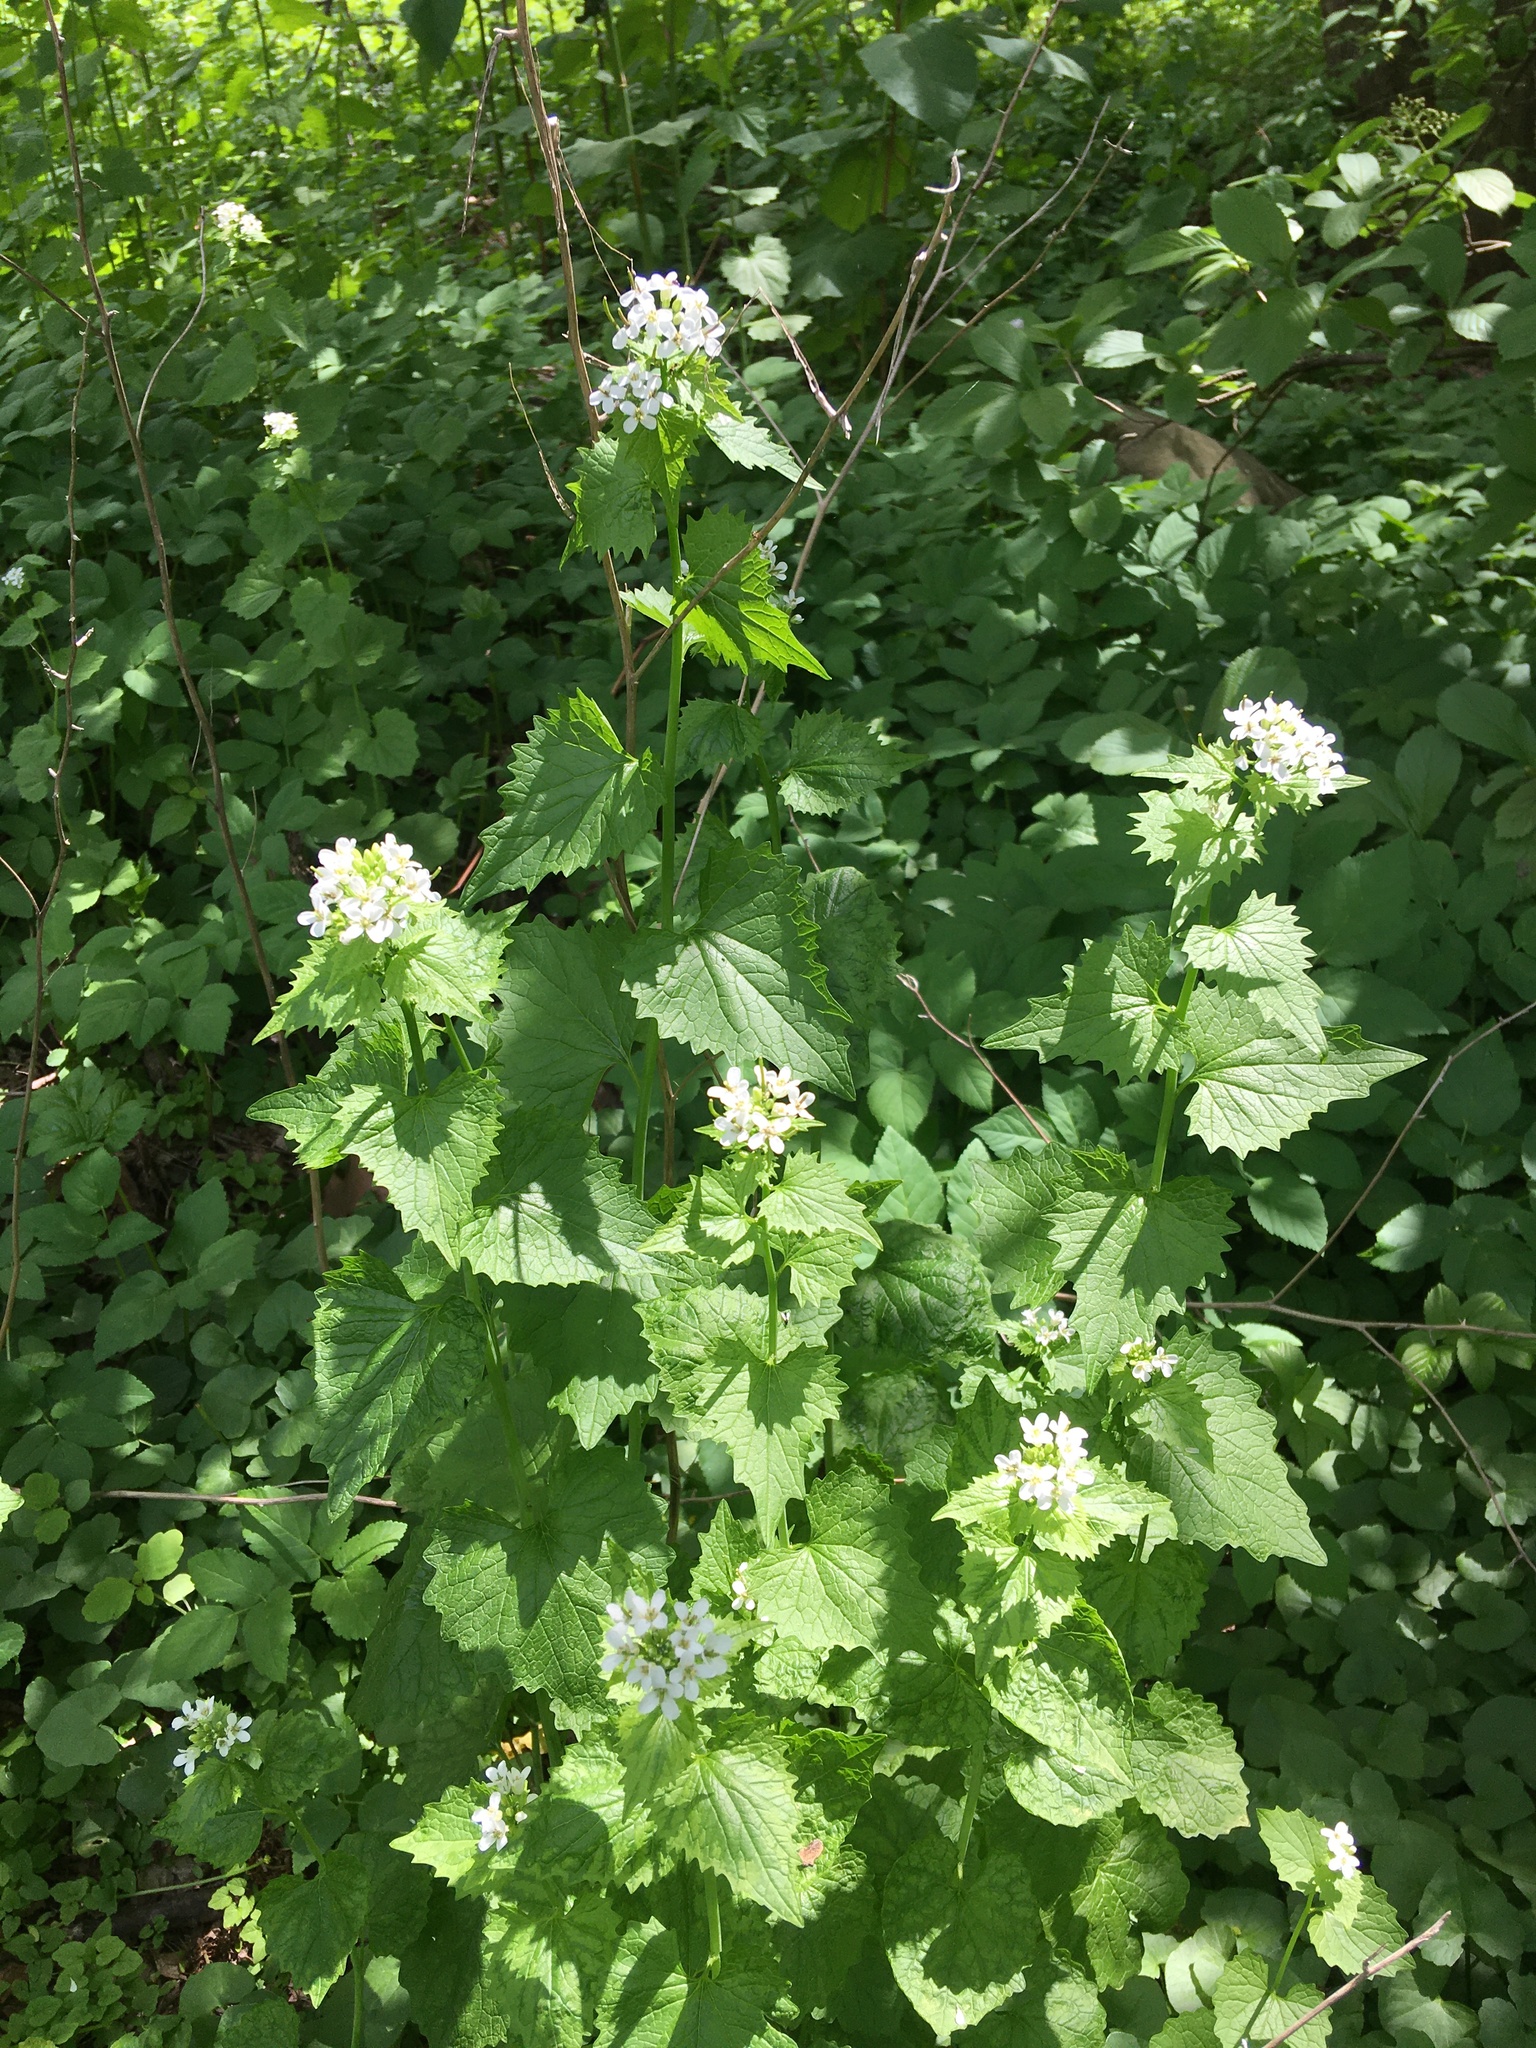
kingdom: Plantae
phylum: Tracheophyta
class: Magnoliopsida
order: Brassicales
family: Brassicaceae
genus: Alliaria
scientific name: Alliaria petiolata
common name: Garlic mustard
